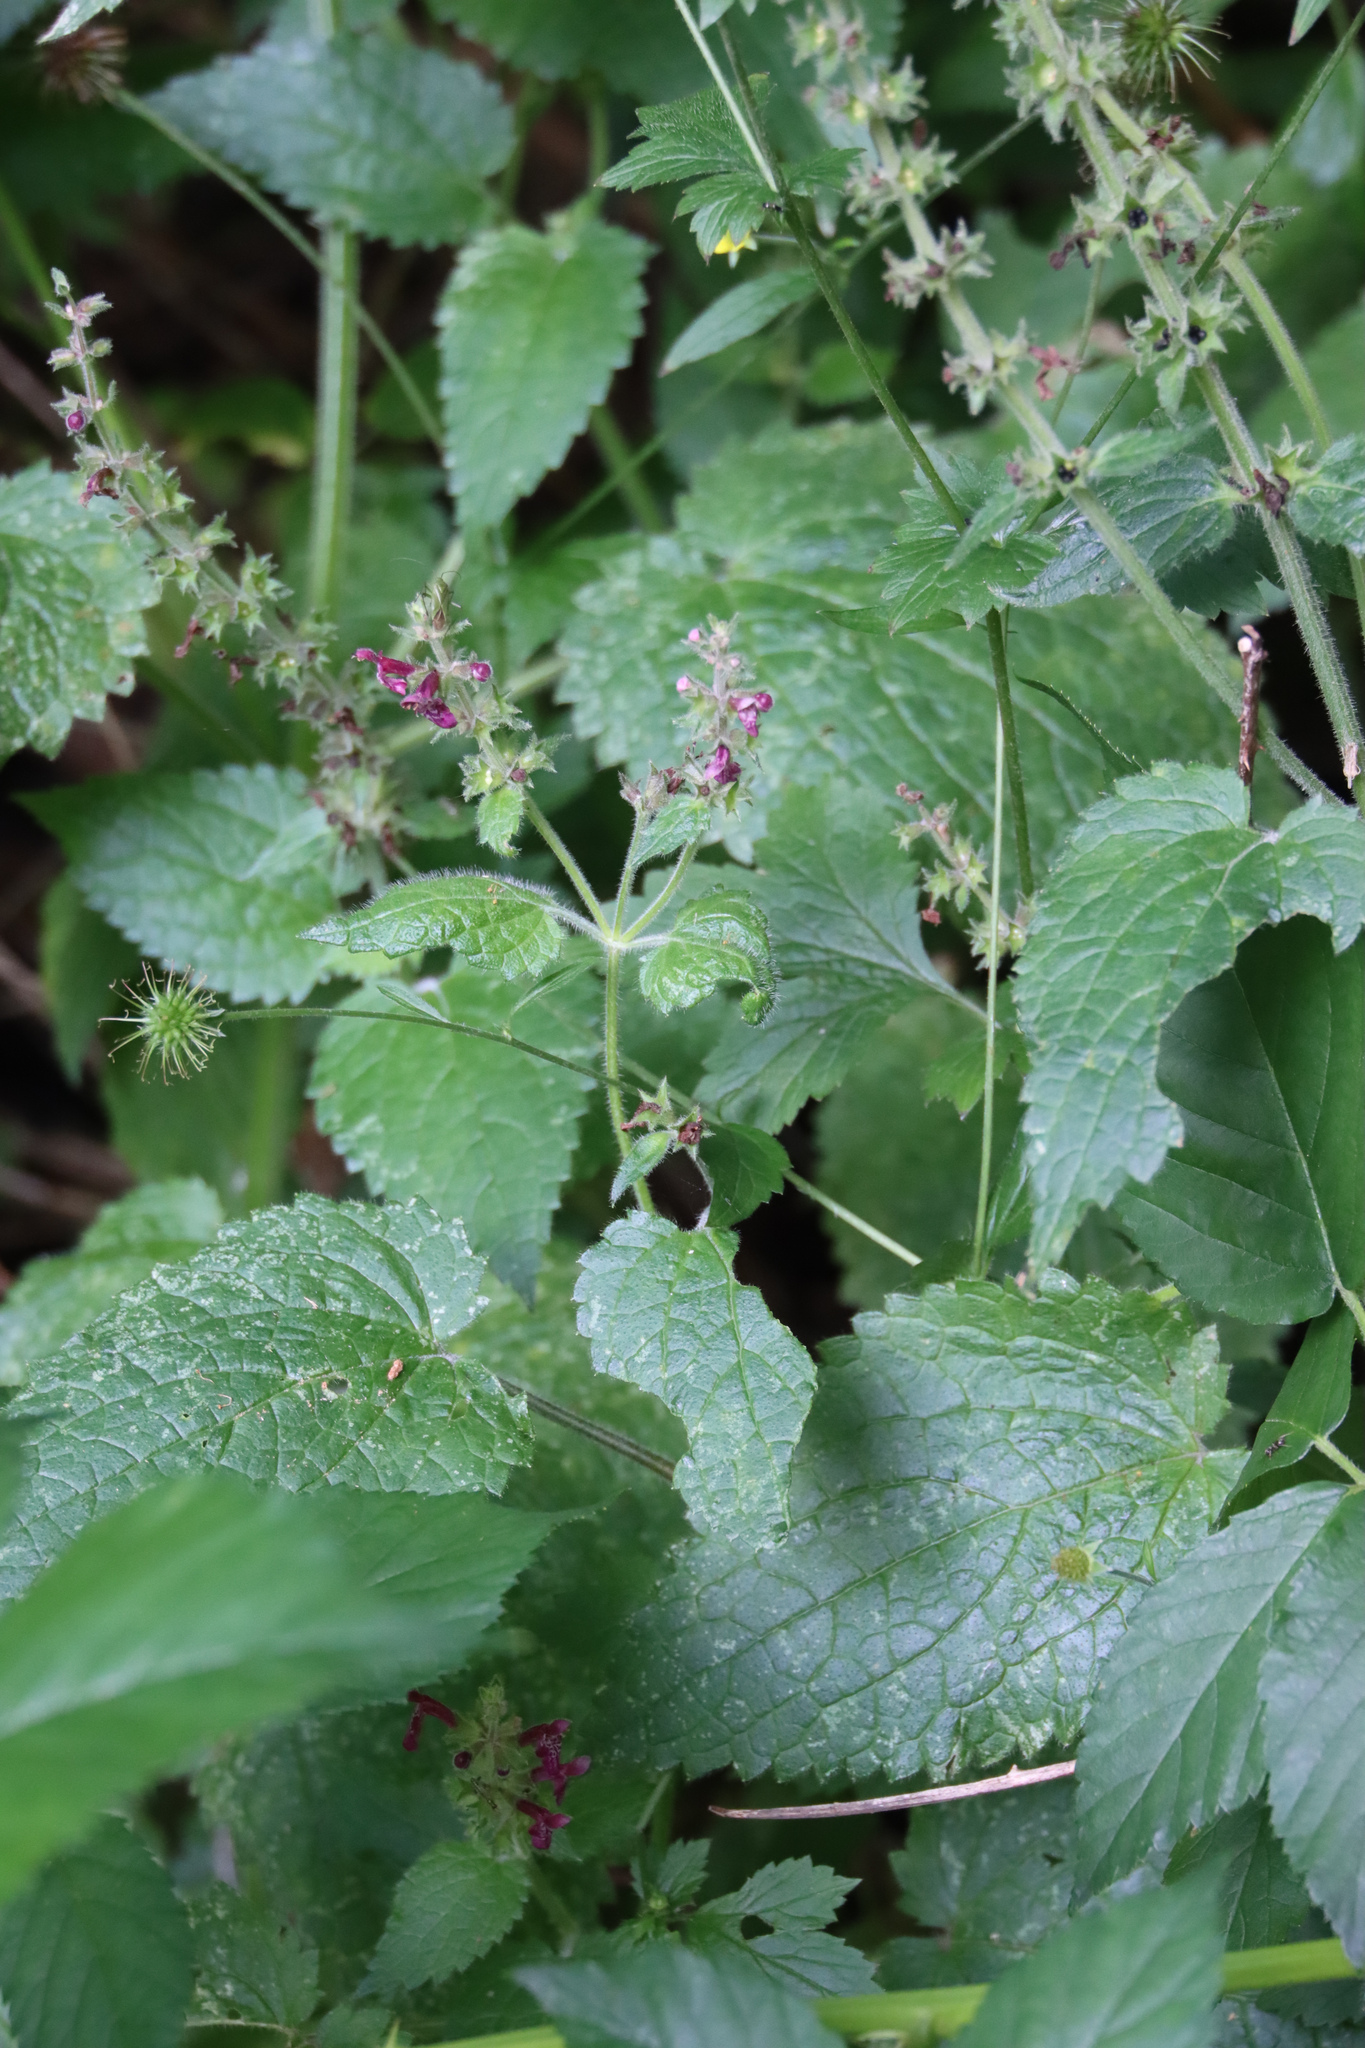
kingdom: Plantae
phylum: Tracheophyta
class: Magnoliopsida
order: Lamiales
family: Lamiaceae
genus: Stachys
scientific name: Stachys sylvatica
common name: Hedge woundwort
